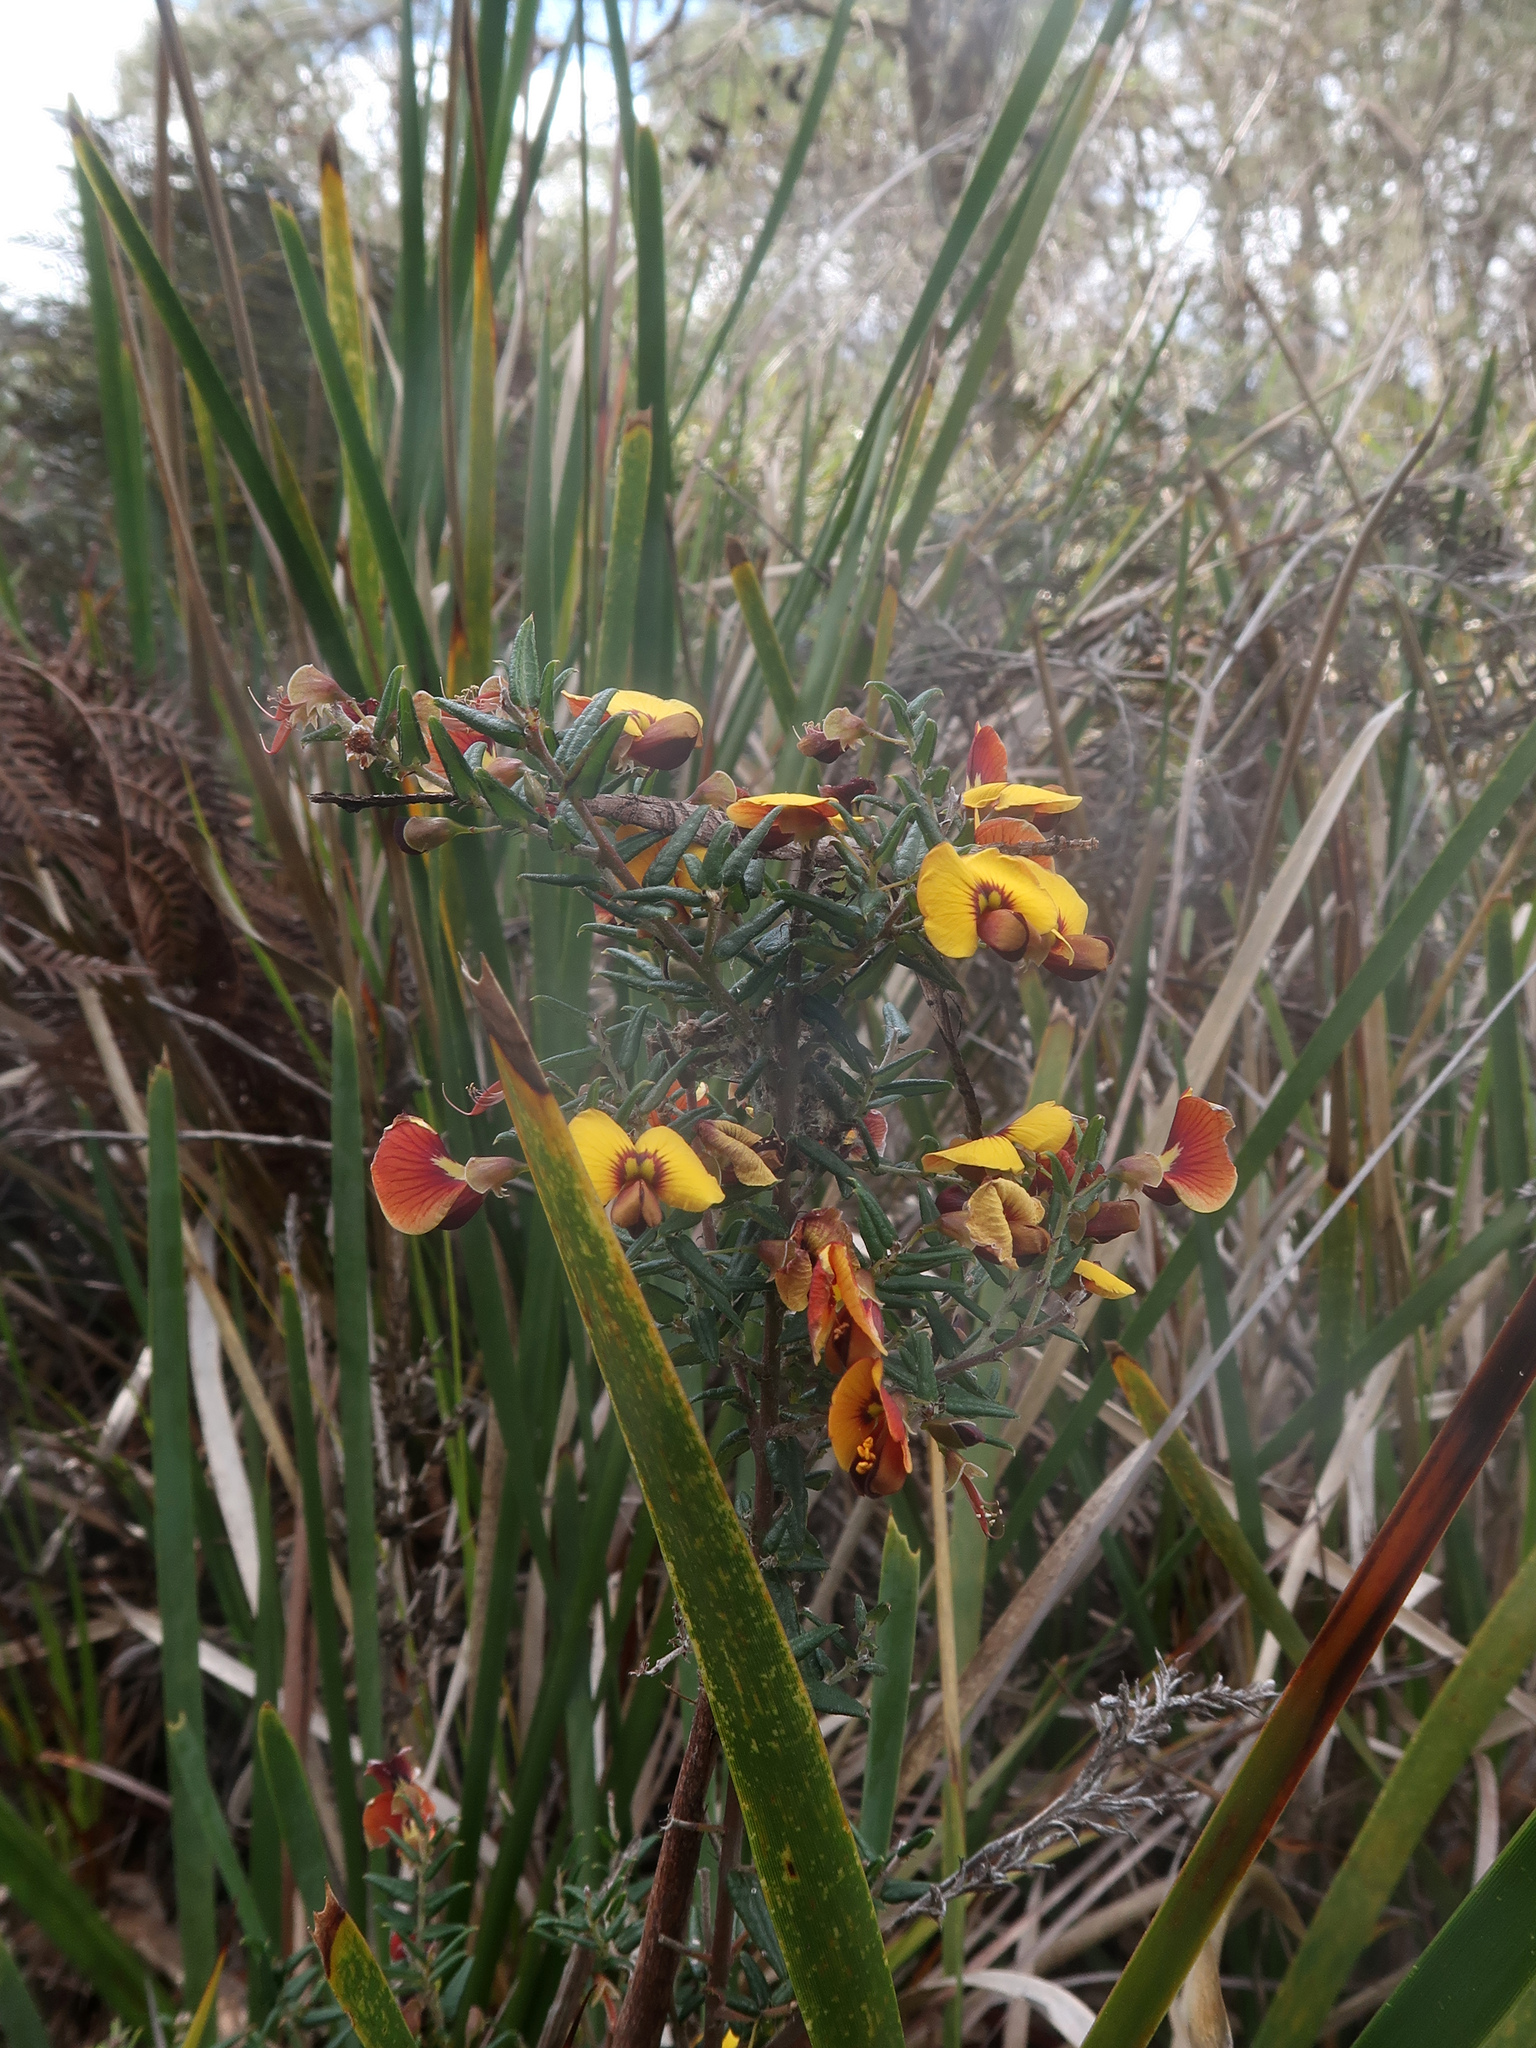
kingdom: Plantae
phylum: Tracheophyta
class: Magnoliopsida
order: Fabales
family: Fabaceae
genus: Bossiaea
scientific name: Bossiaea cinerea
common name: Showy bossiaea
